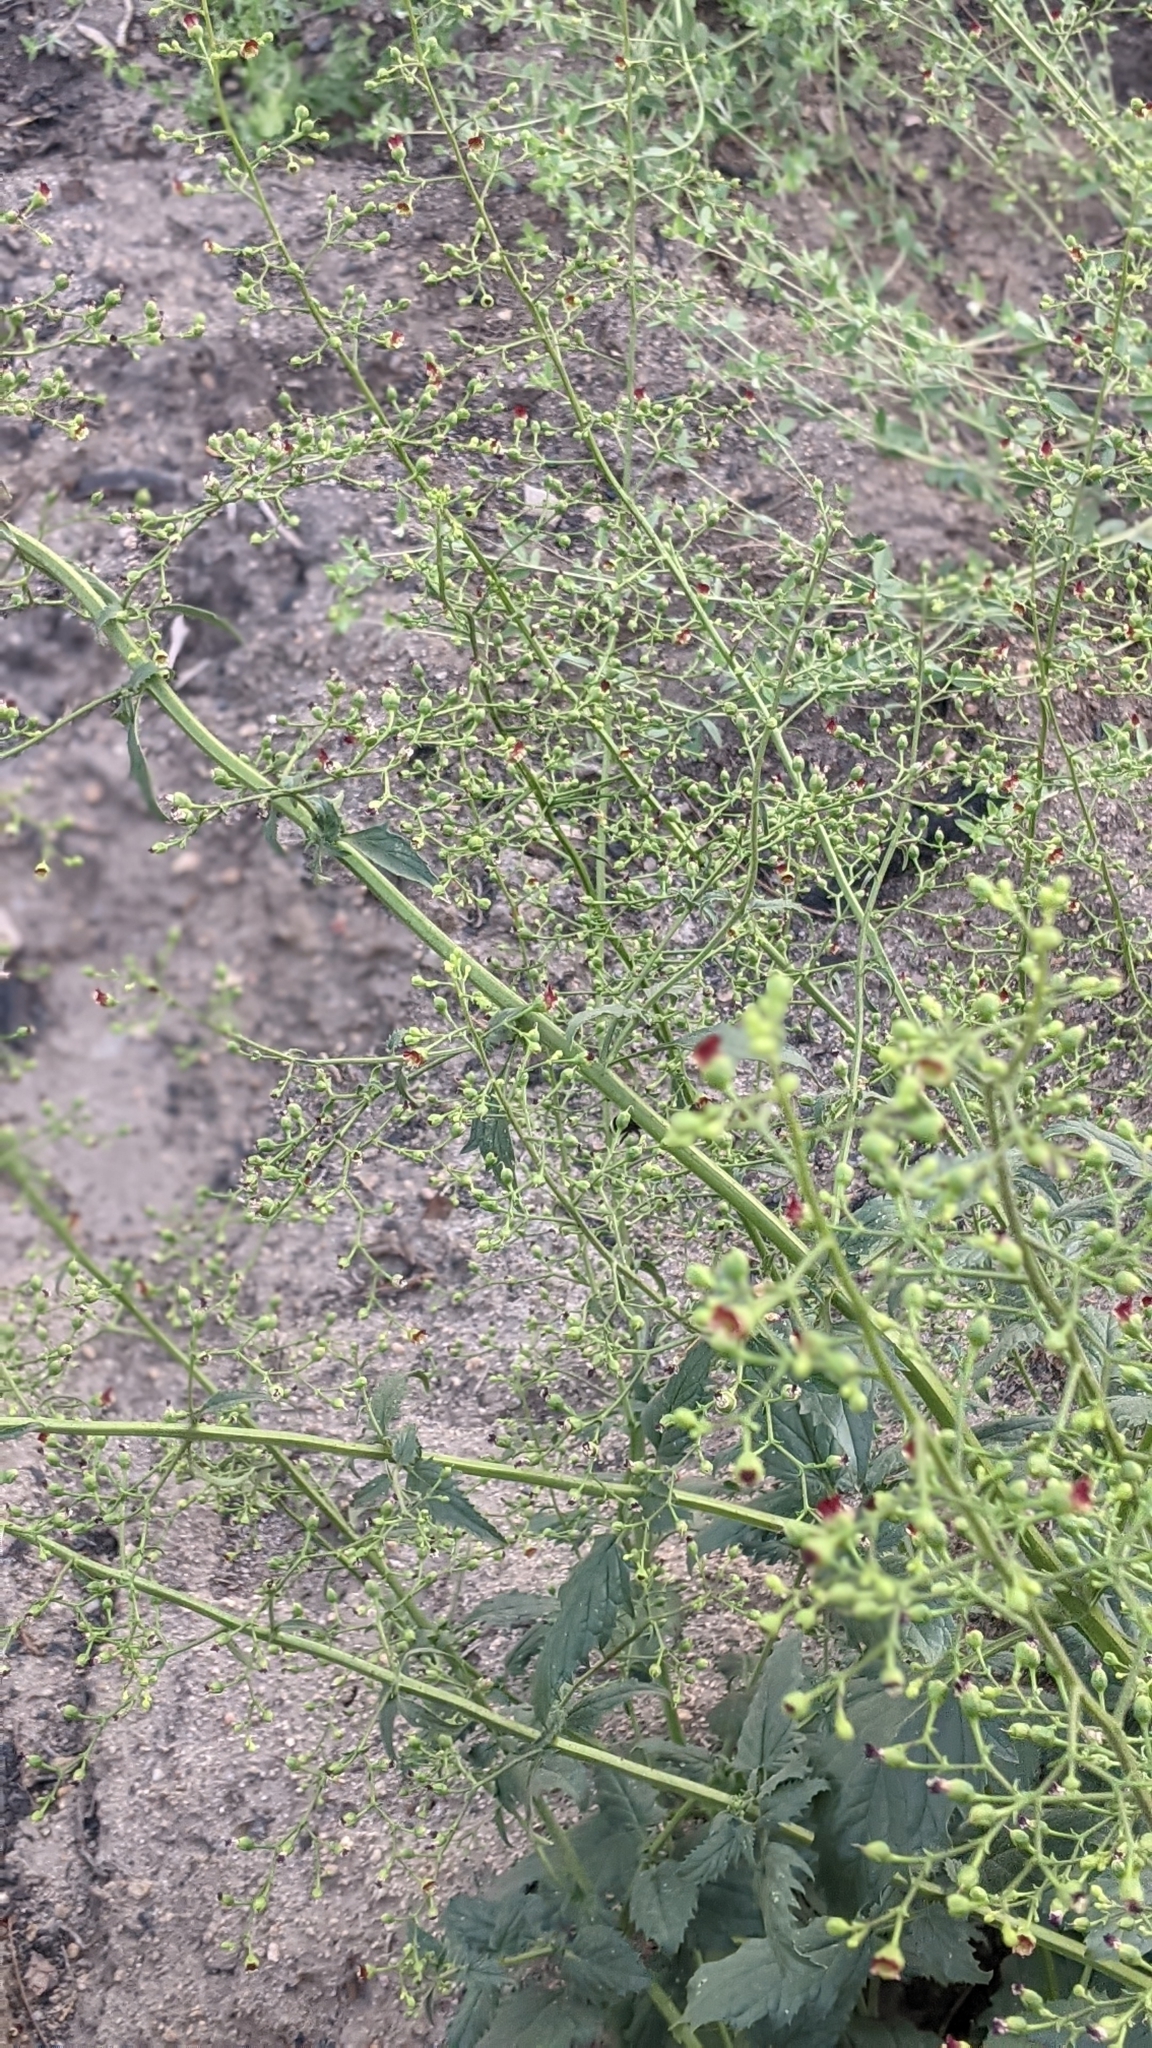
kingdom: Plantae
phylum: Tracheophyta
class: Magnoliopsida
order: Lamiales
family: Scrophulariaceae
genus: Scrophularia
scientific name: Scrophularia californica
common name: California figwort
